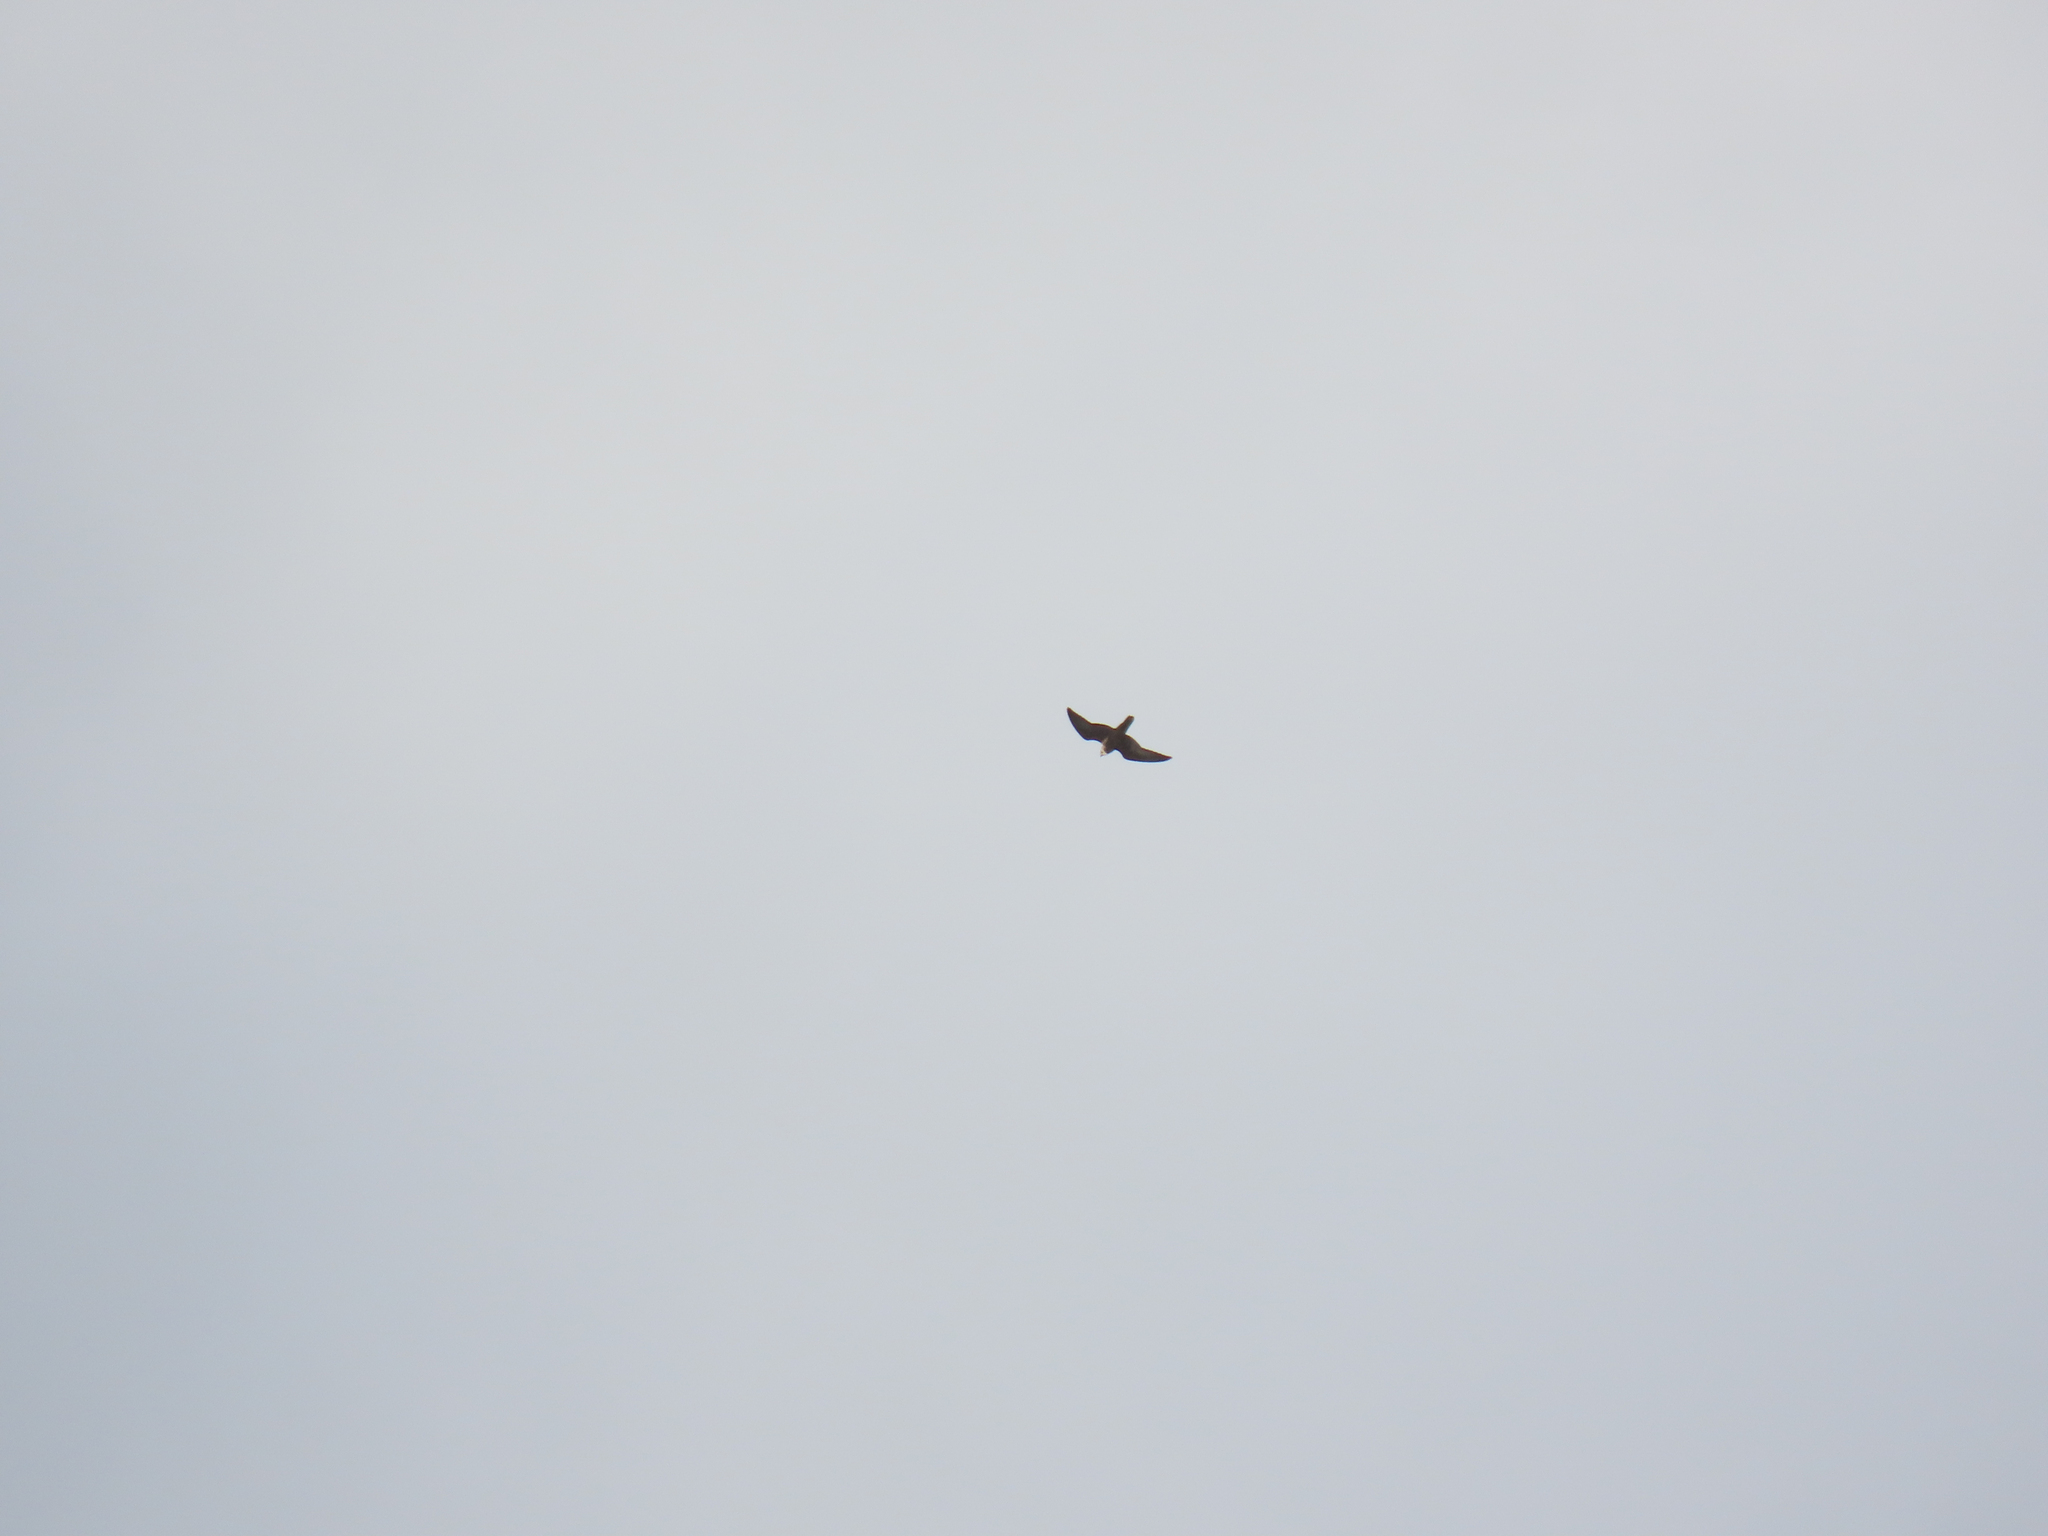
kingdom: Animalia
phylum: Chordata
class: Aves
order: Falconiformes
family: Falconidae
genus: Falco
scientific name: Falco peregrinus
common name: Peregrine falcon
